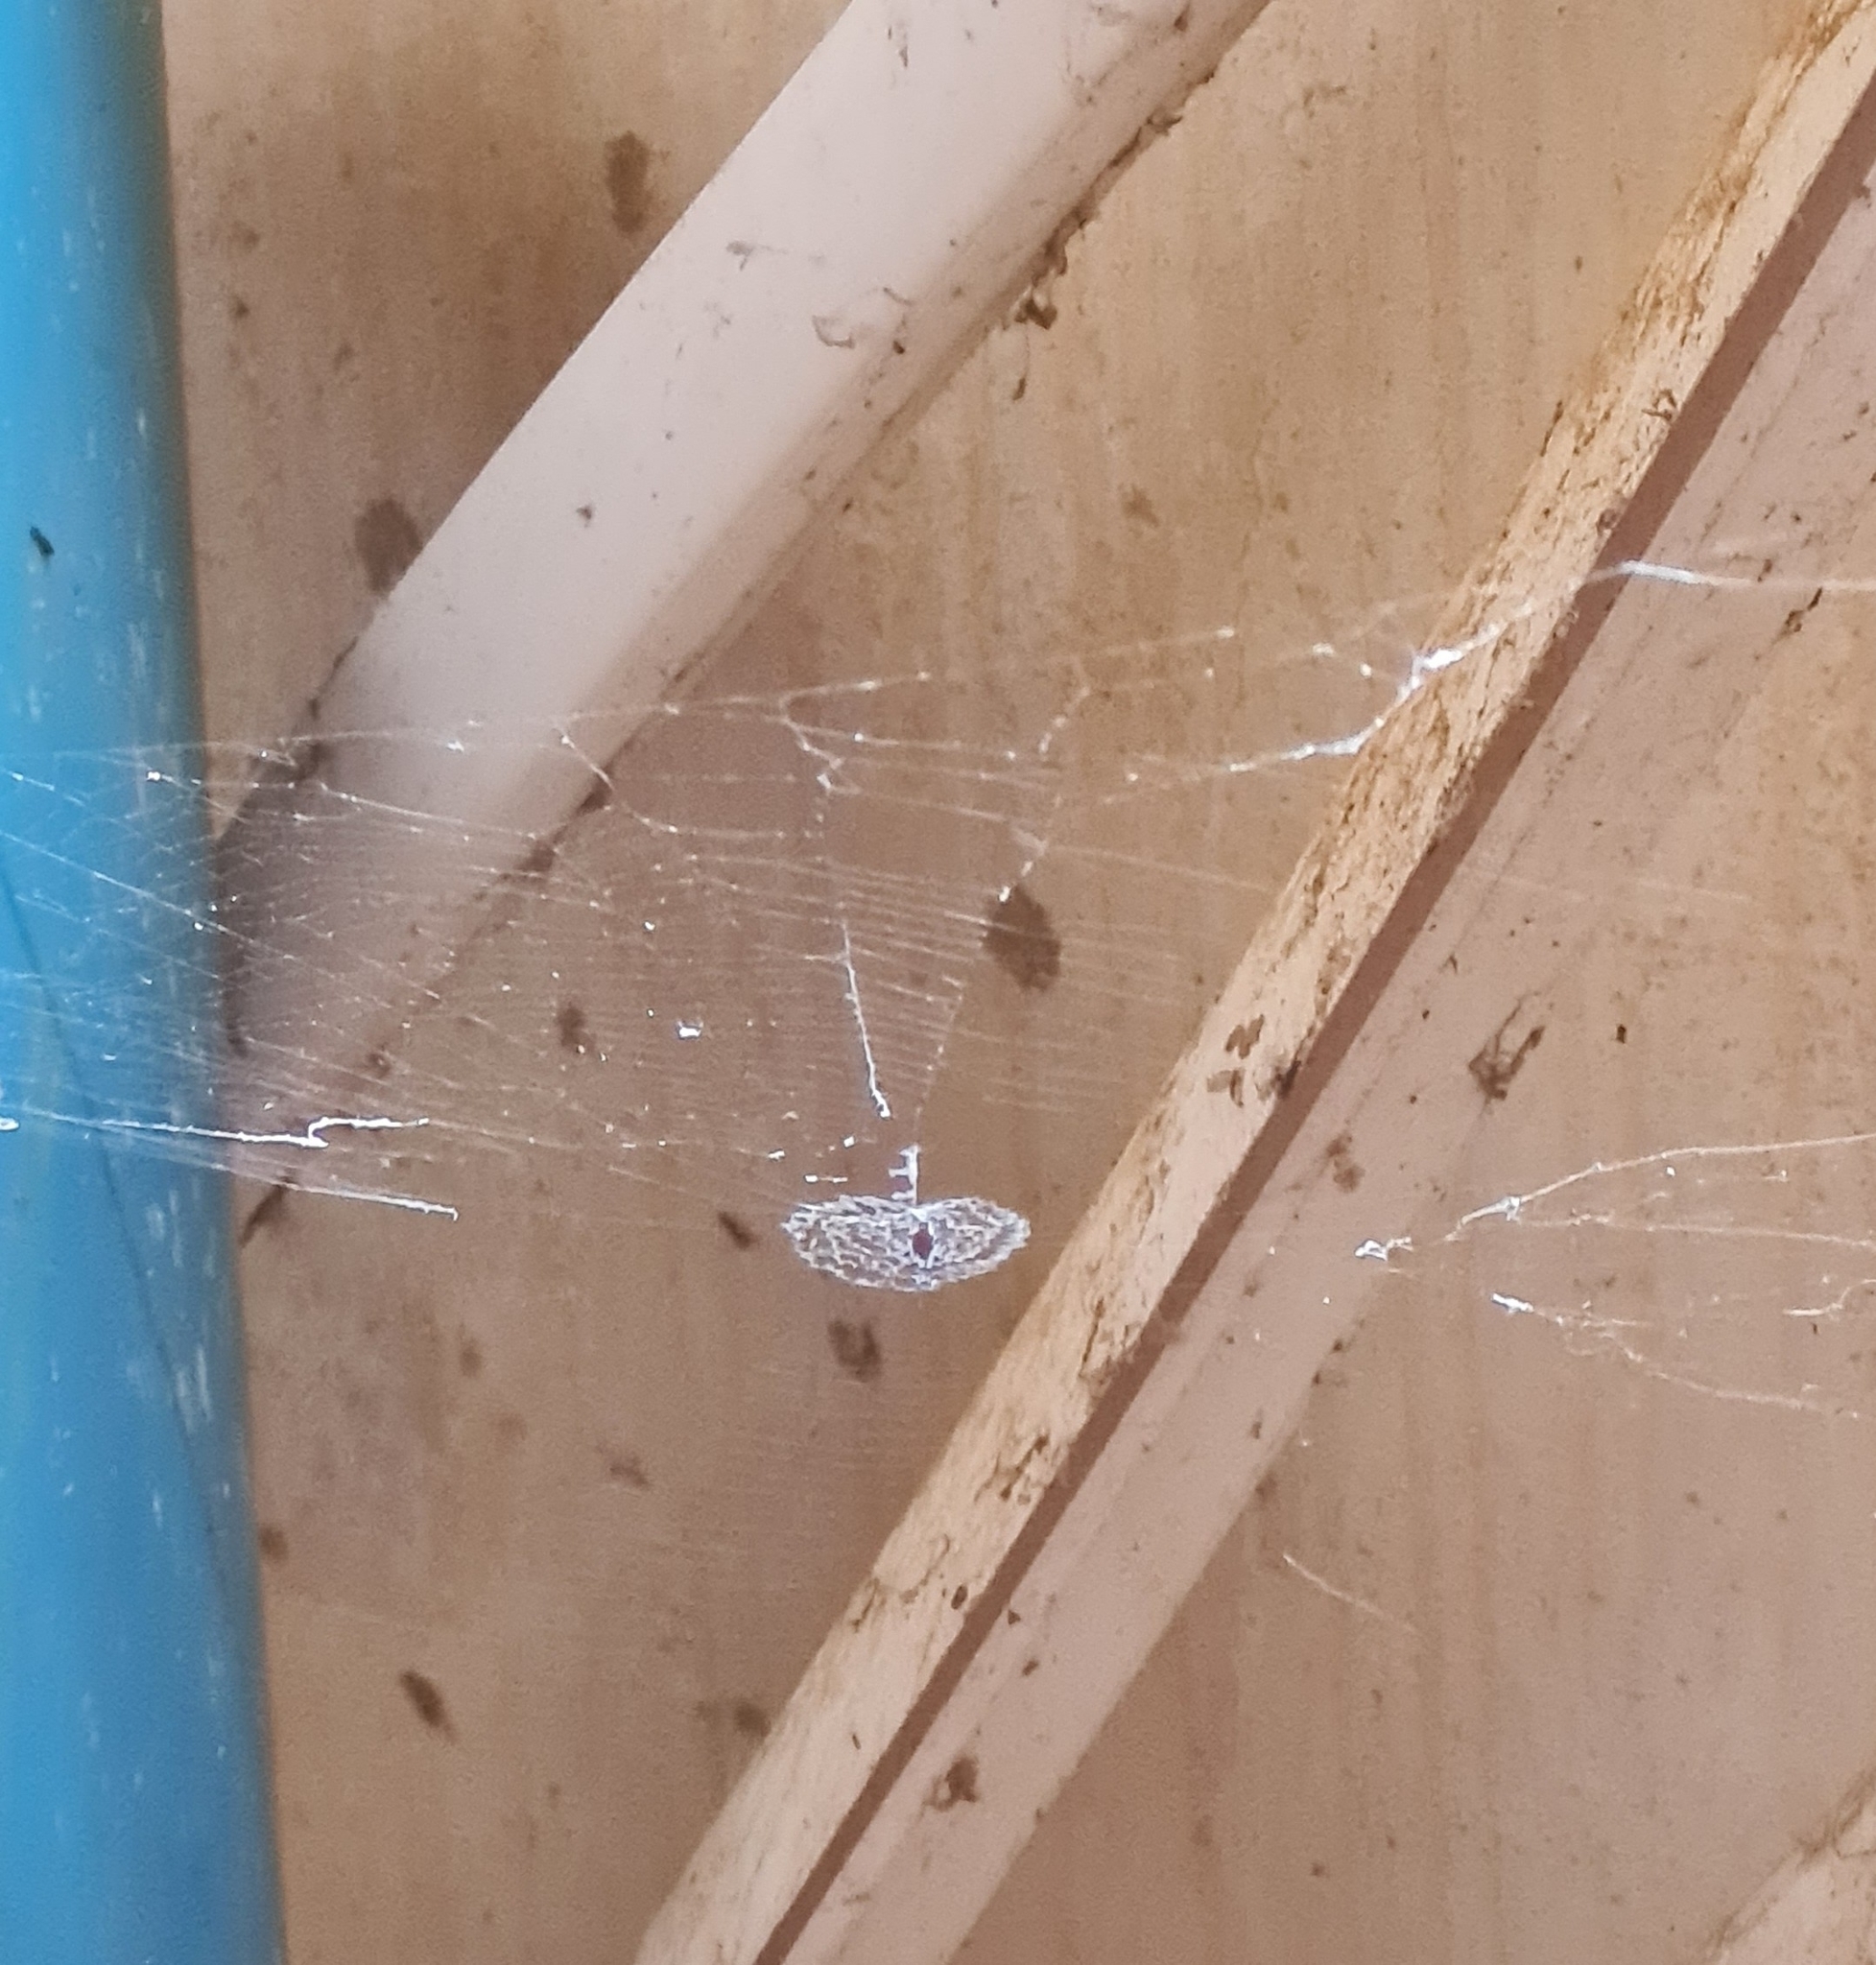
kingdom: Animalia
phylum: Arthropoda
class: Arachnida
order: Araneae
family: Uloboridae
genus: Zosis
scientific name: Zosis geniculata
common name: Hackled orb weavers
